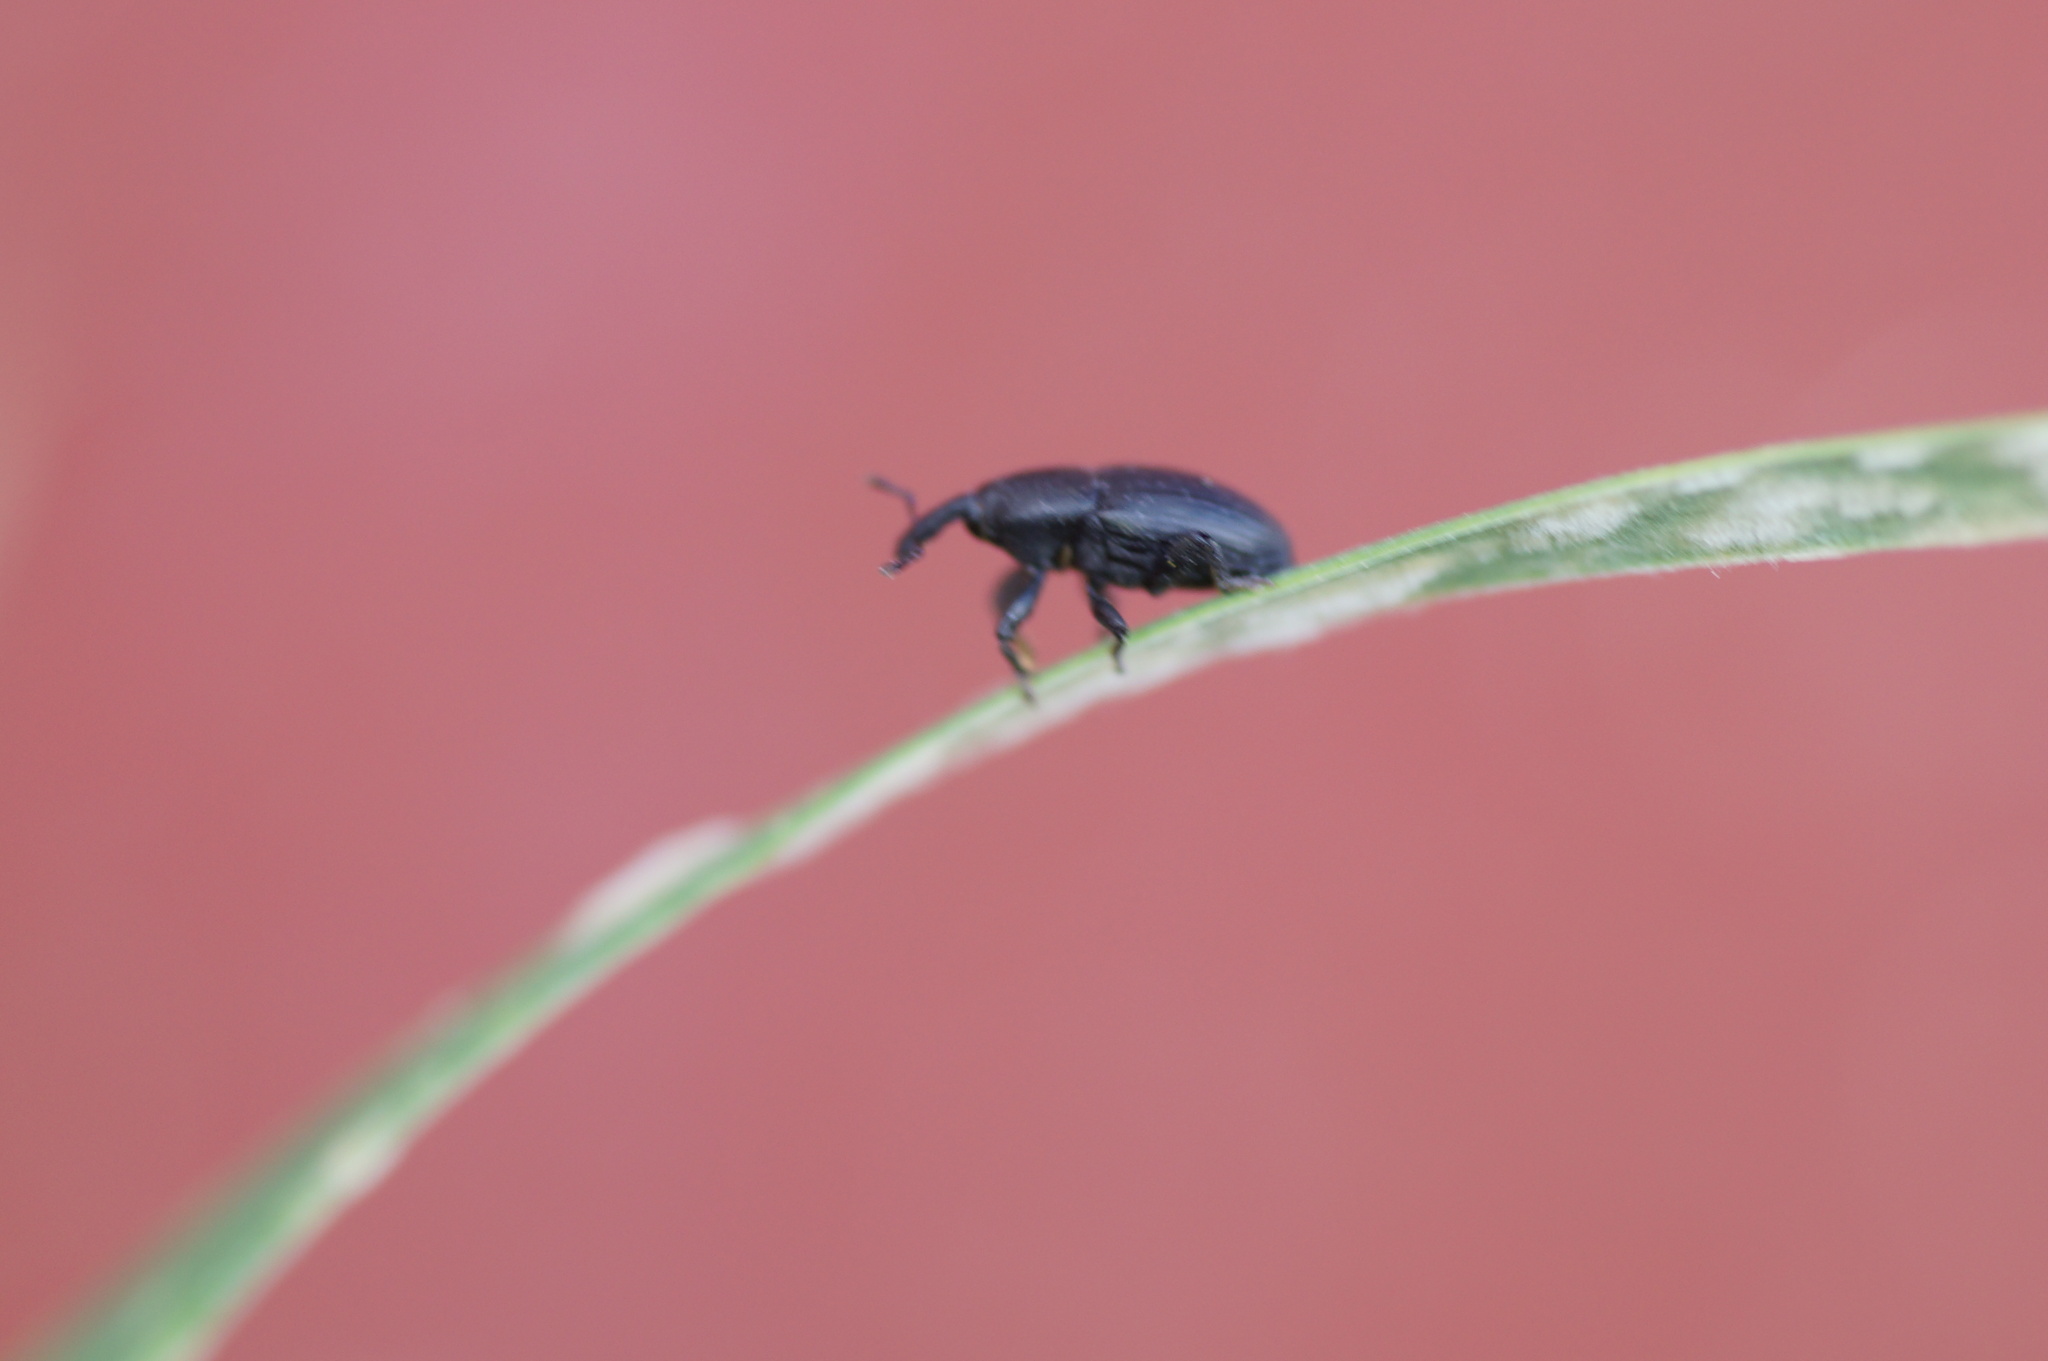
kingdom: Animalia
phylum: Arthropoda
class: Insecta
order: Coleoptera
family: Curculionidae
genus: Melanobaris
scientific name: Melanobaris
